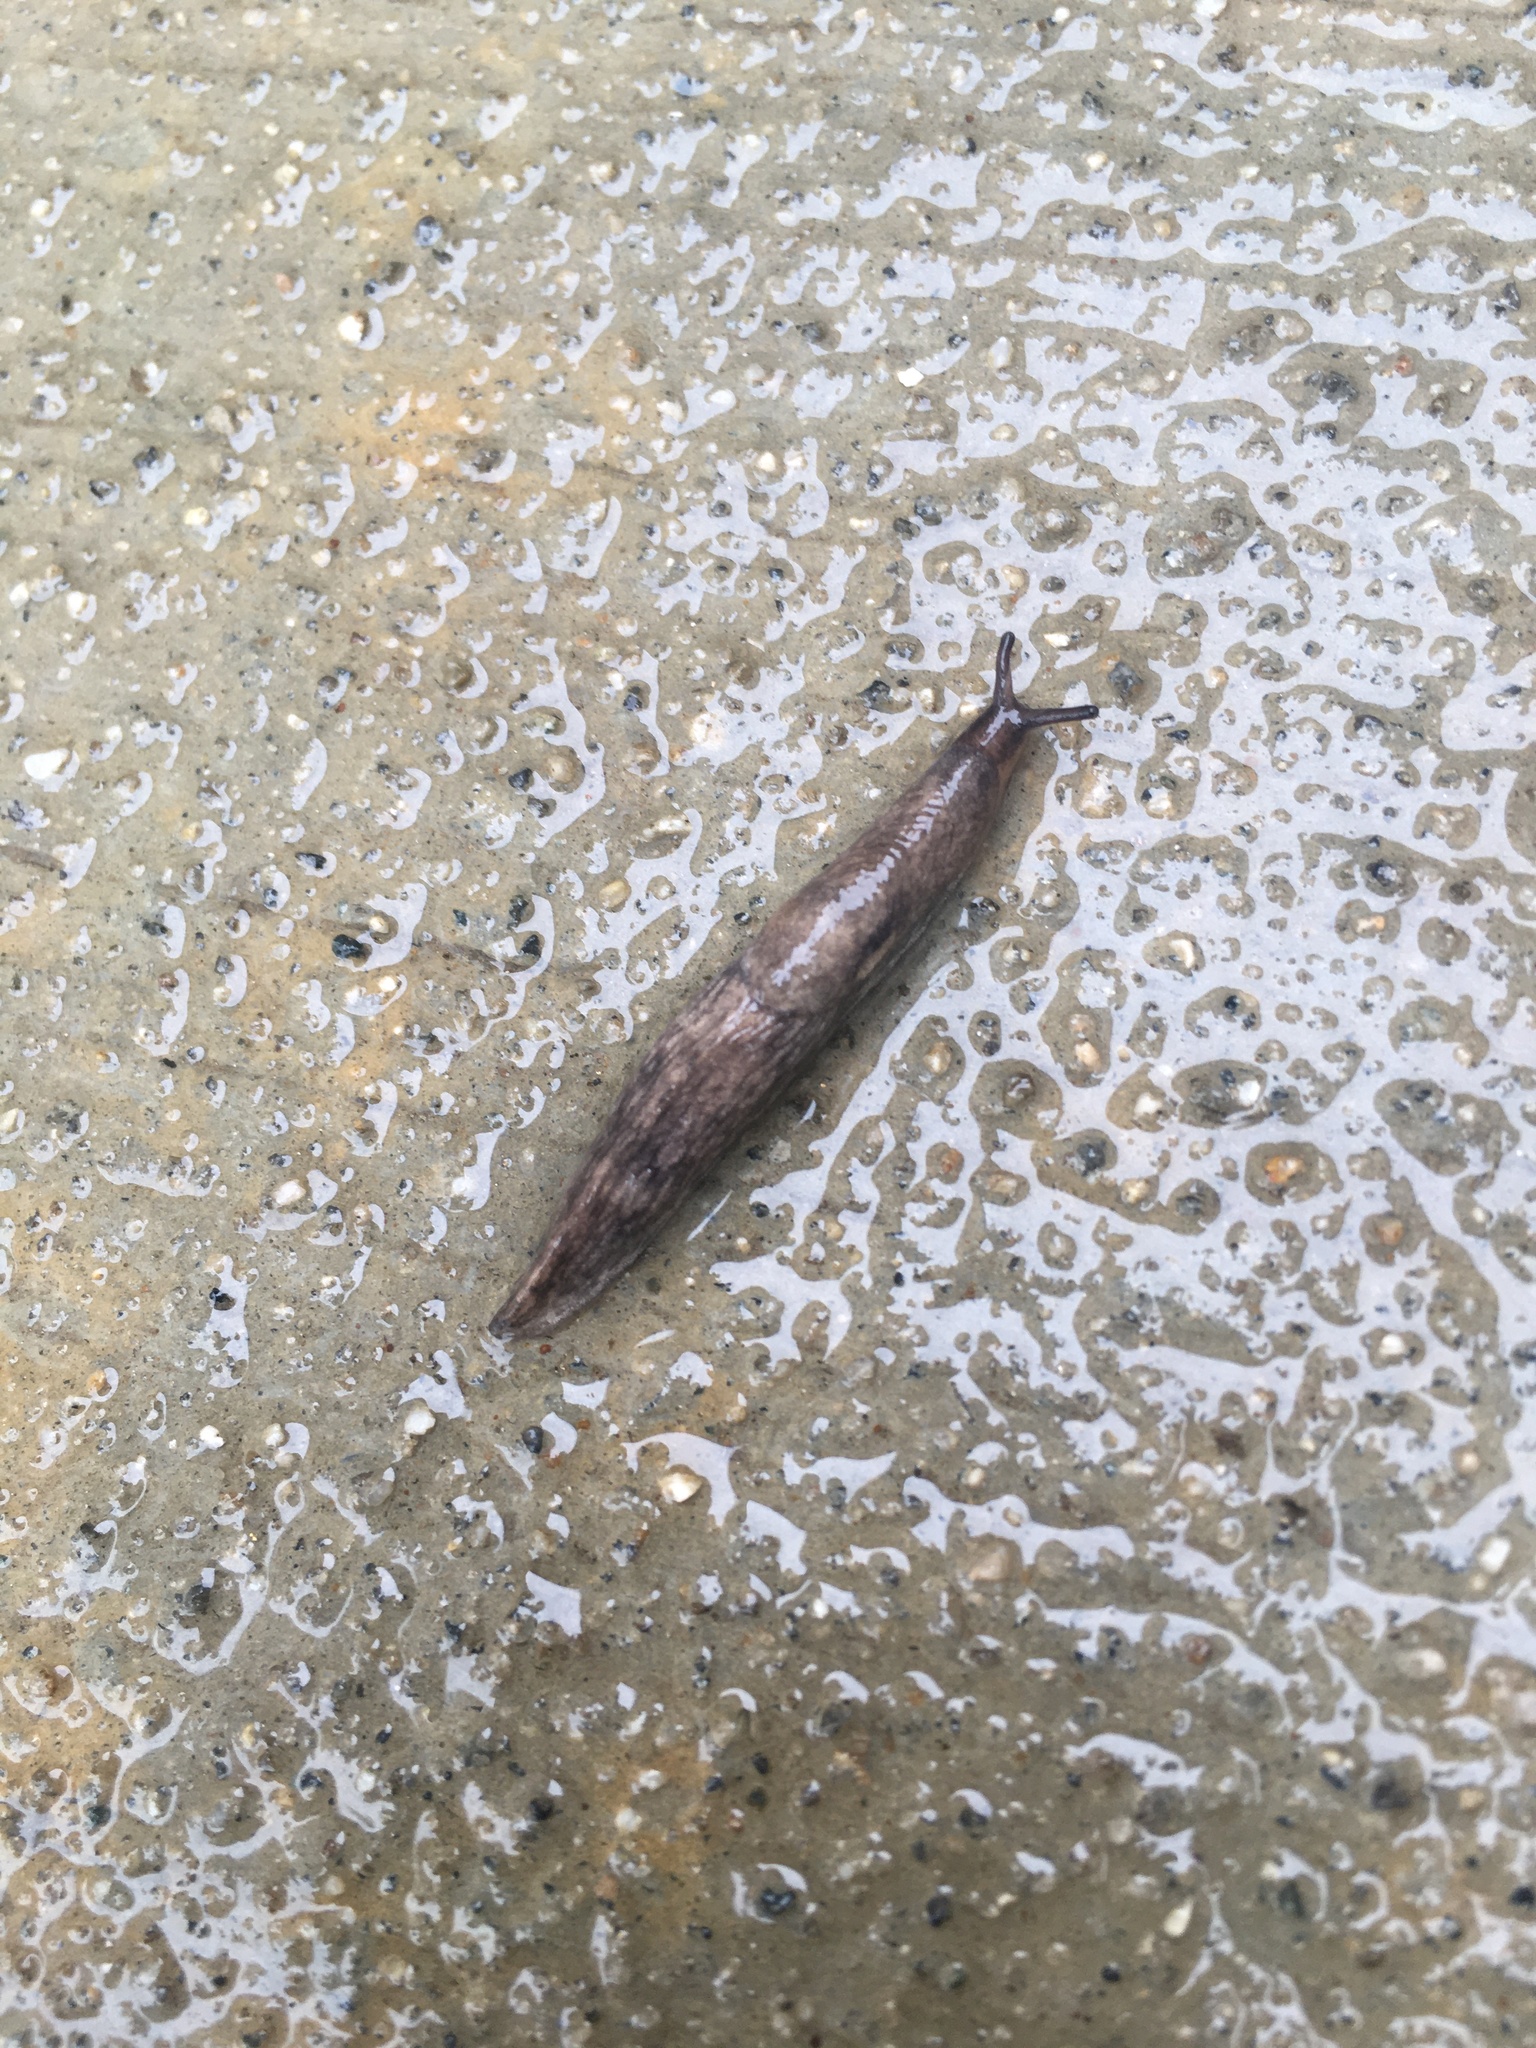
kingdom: Animalia
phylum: Mollusca
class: Gastropoda
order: Stylommatophora
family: Agriolimacidae
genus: Deroceras
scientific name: Deroceras reticulatum
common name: Gray field slug
